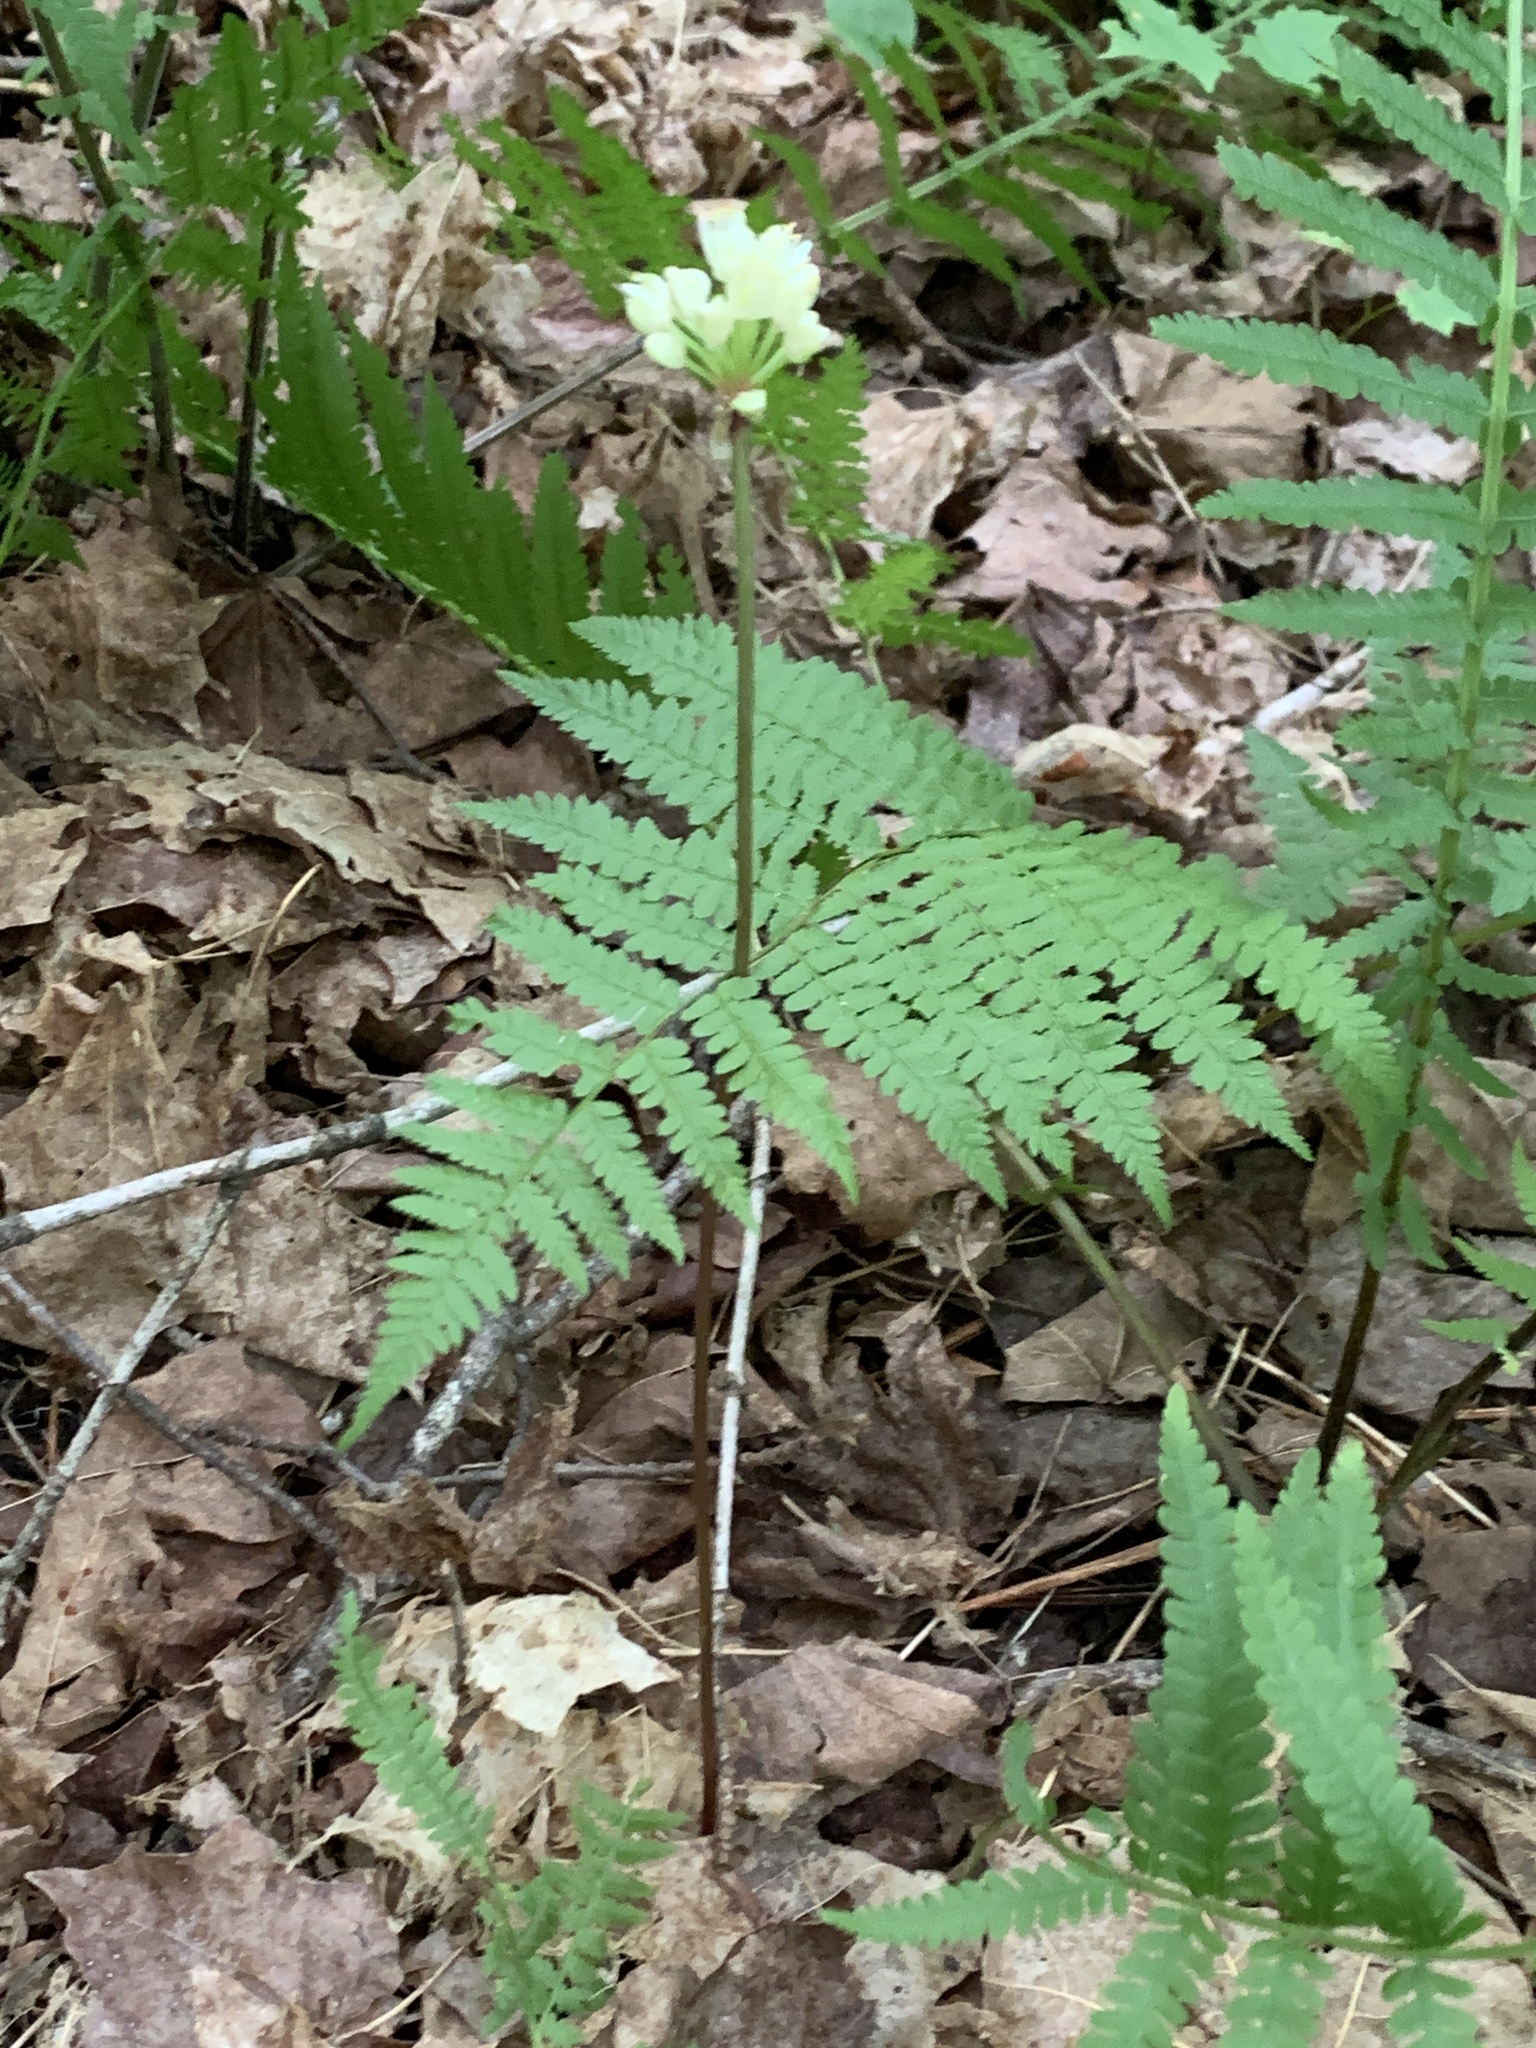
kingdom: Plantae
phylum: Tracheophyta
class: Liliopsida
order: Asparagales
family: Amaryllidaceae
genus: Allium
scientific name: Allium tricoccum
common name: Ramp
